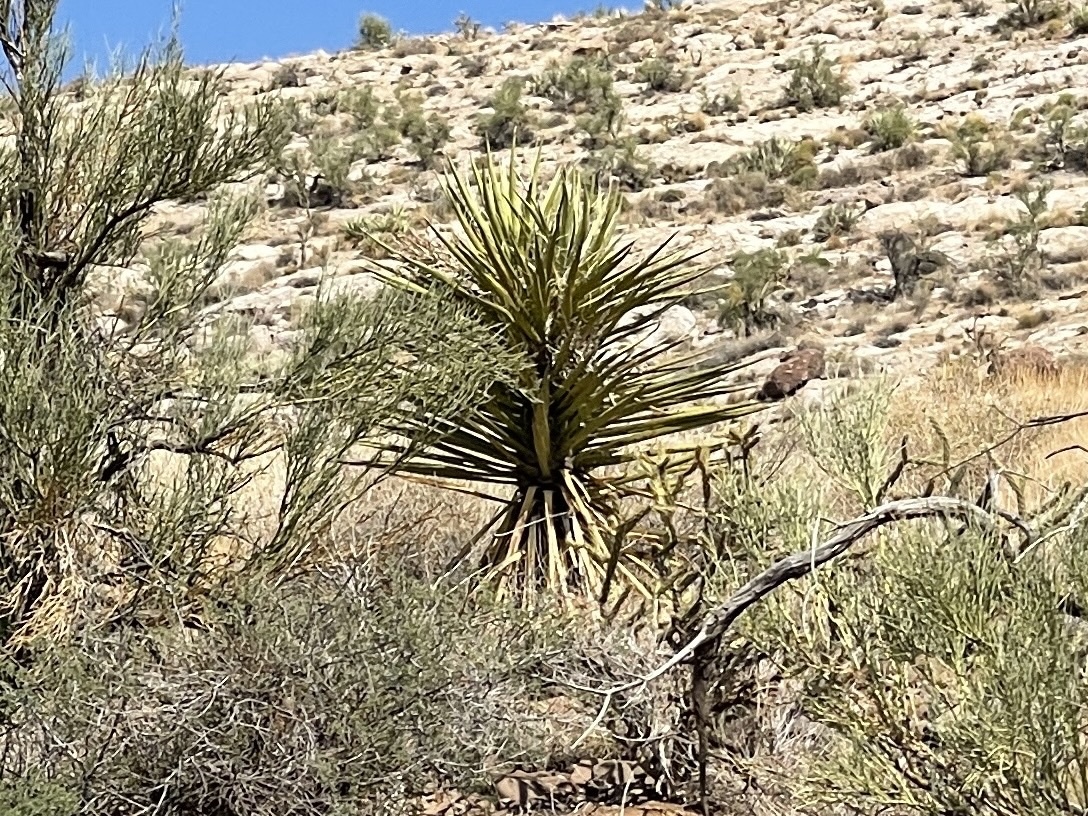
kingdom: Plantae
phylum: Tracheophyta
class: Liliopsida
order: Asparagales
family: Asparagaceae
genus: Yucca
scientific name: Yucca schidigera
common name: Mojave yucca
